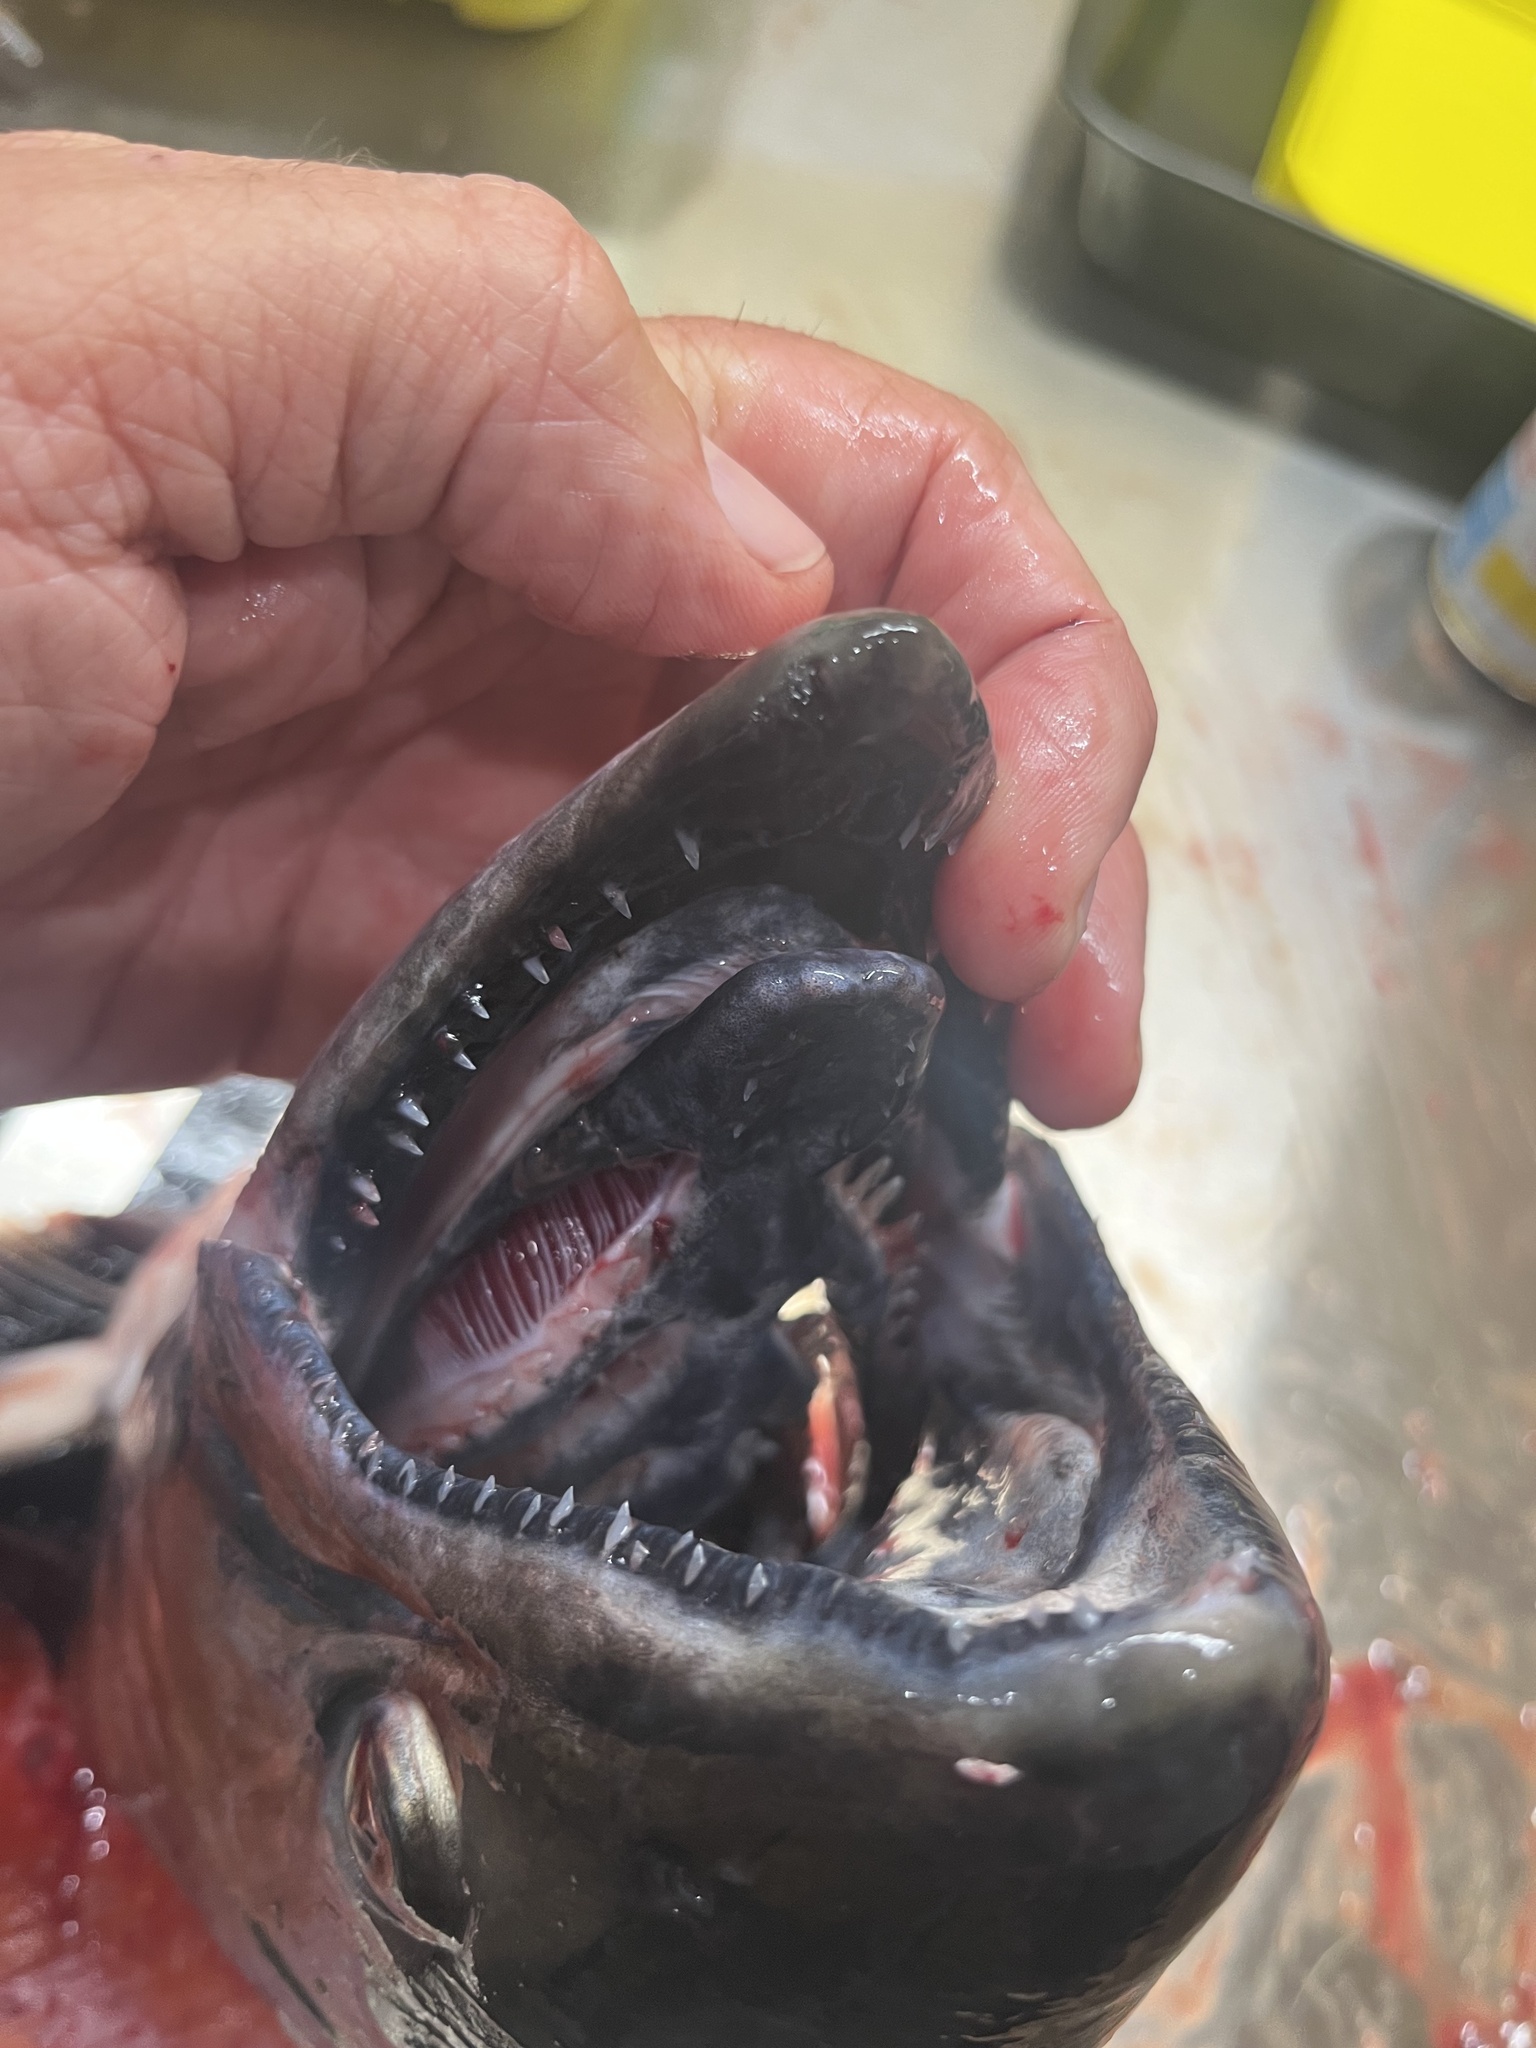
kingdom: Animalia
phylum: Chordata
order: Salmoniformes
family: Salmonidae
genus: Oncorhynchus
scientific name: Oncorhynchus tshawytscha
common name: Chinook salmon
